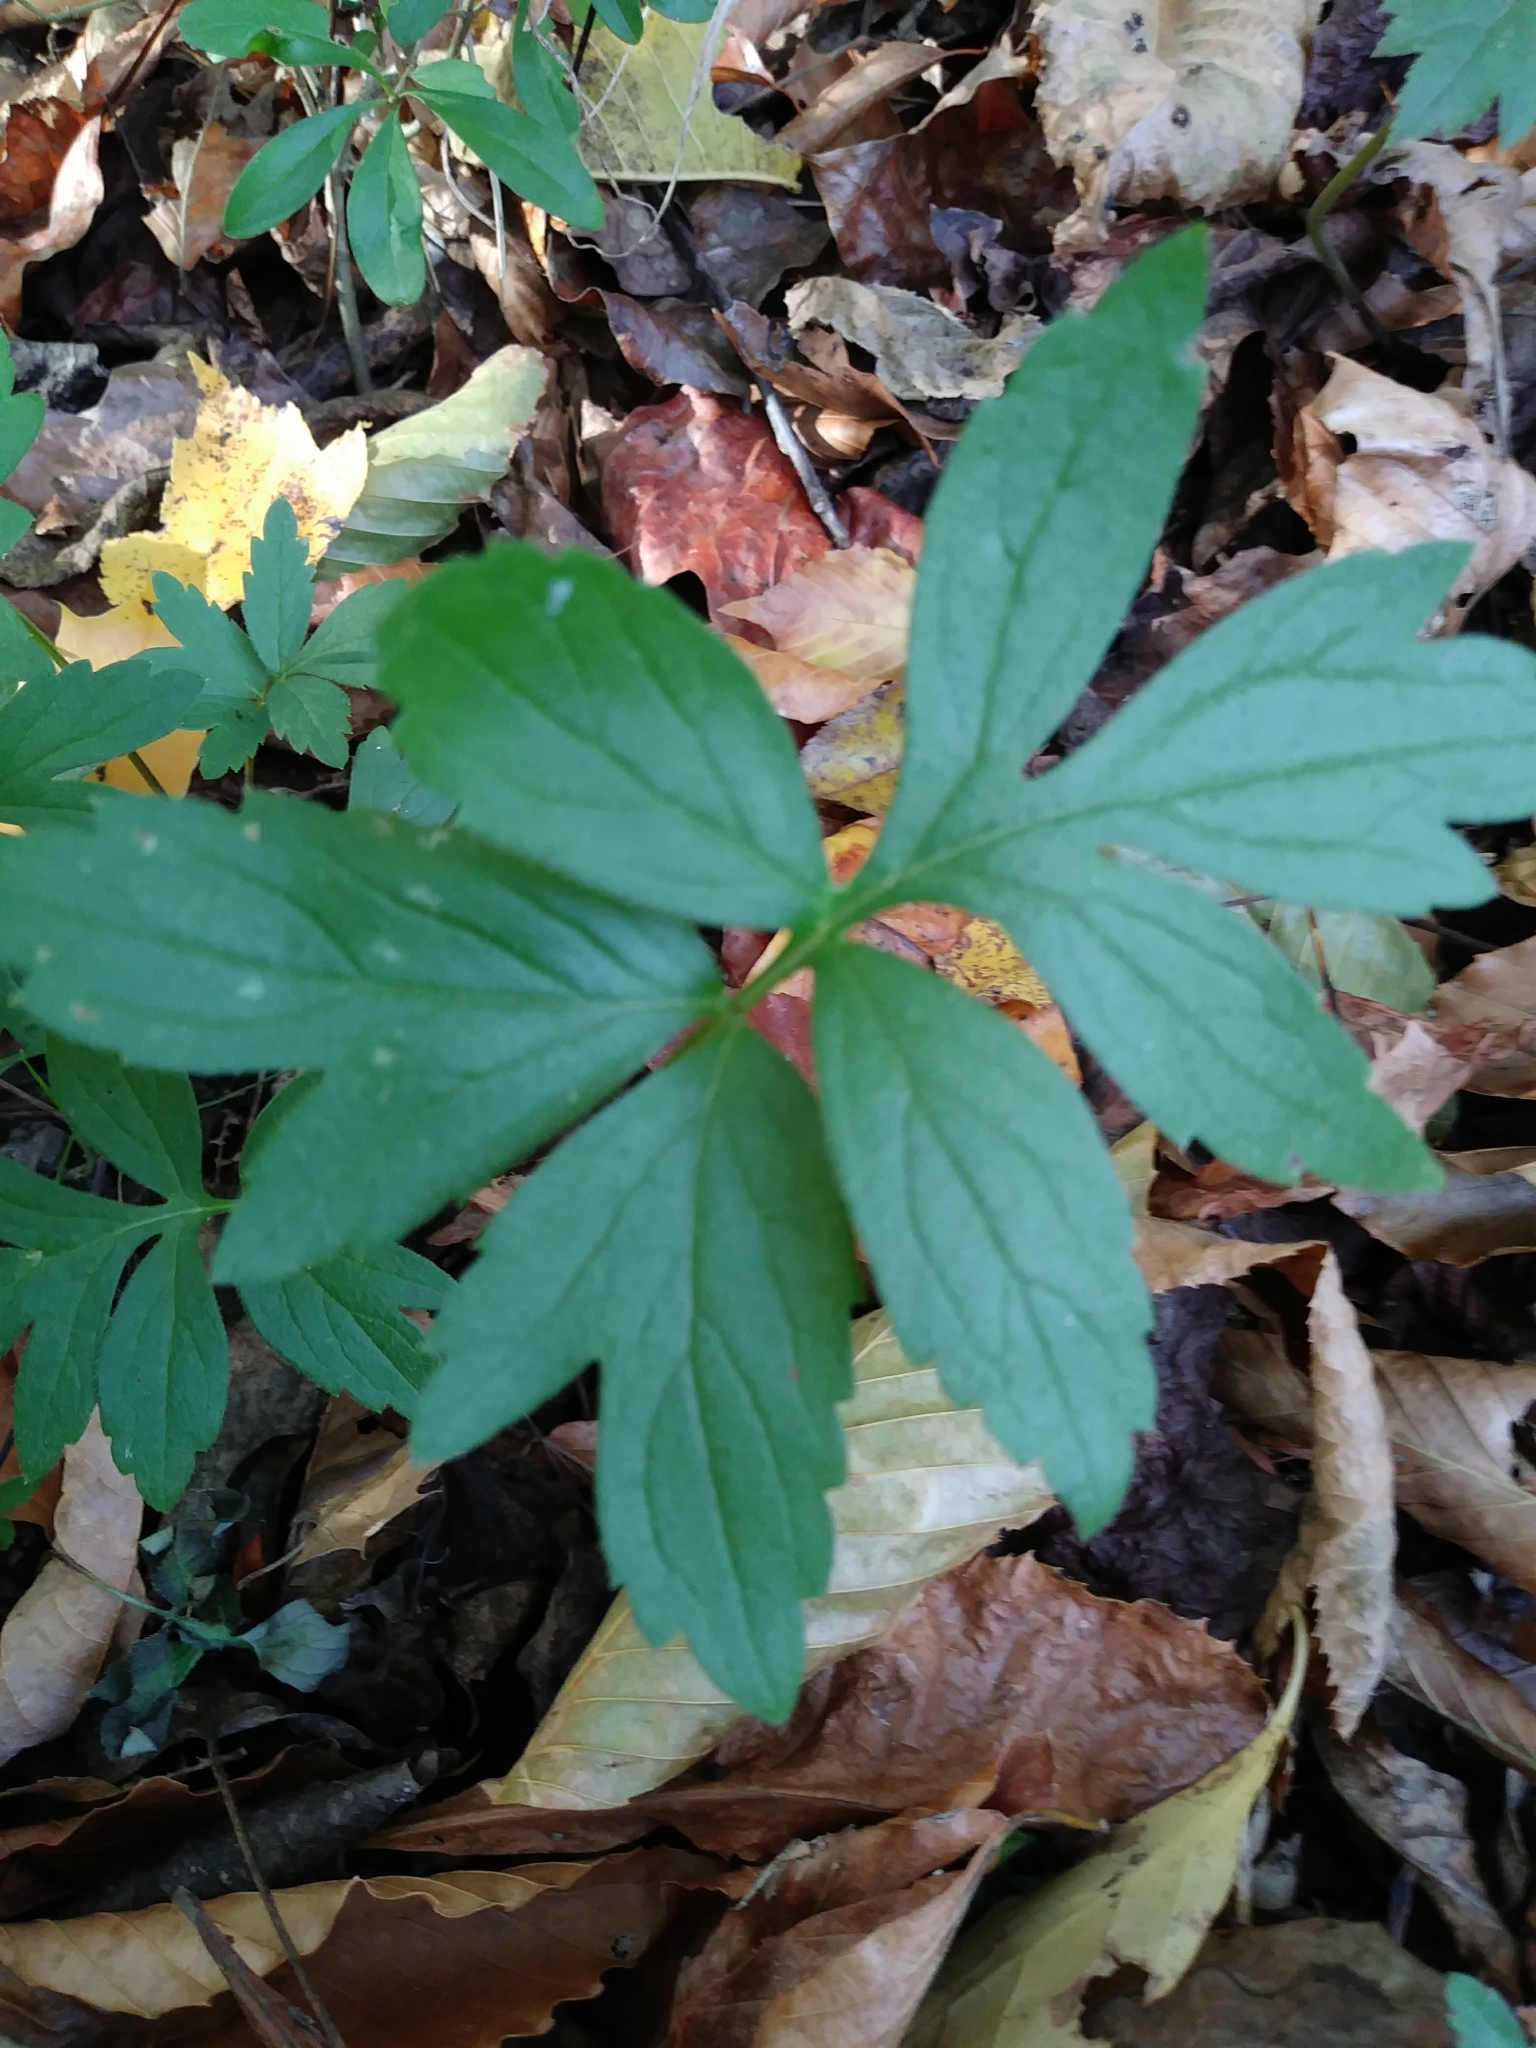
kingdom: Plantae
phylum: Tracheophyta
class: Magnoliopsida
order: Boraginales
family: Hydrophyllaceae
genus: Hydrophyllum
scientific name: Hydrophyllum virginianum
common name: Virginia waterleaf
